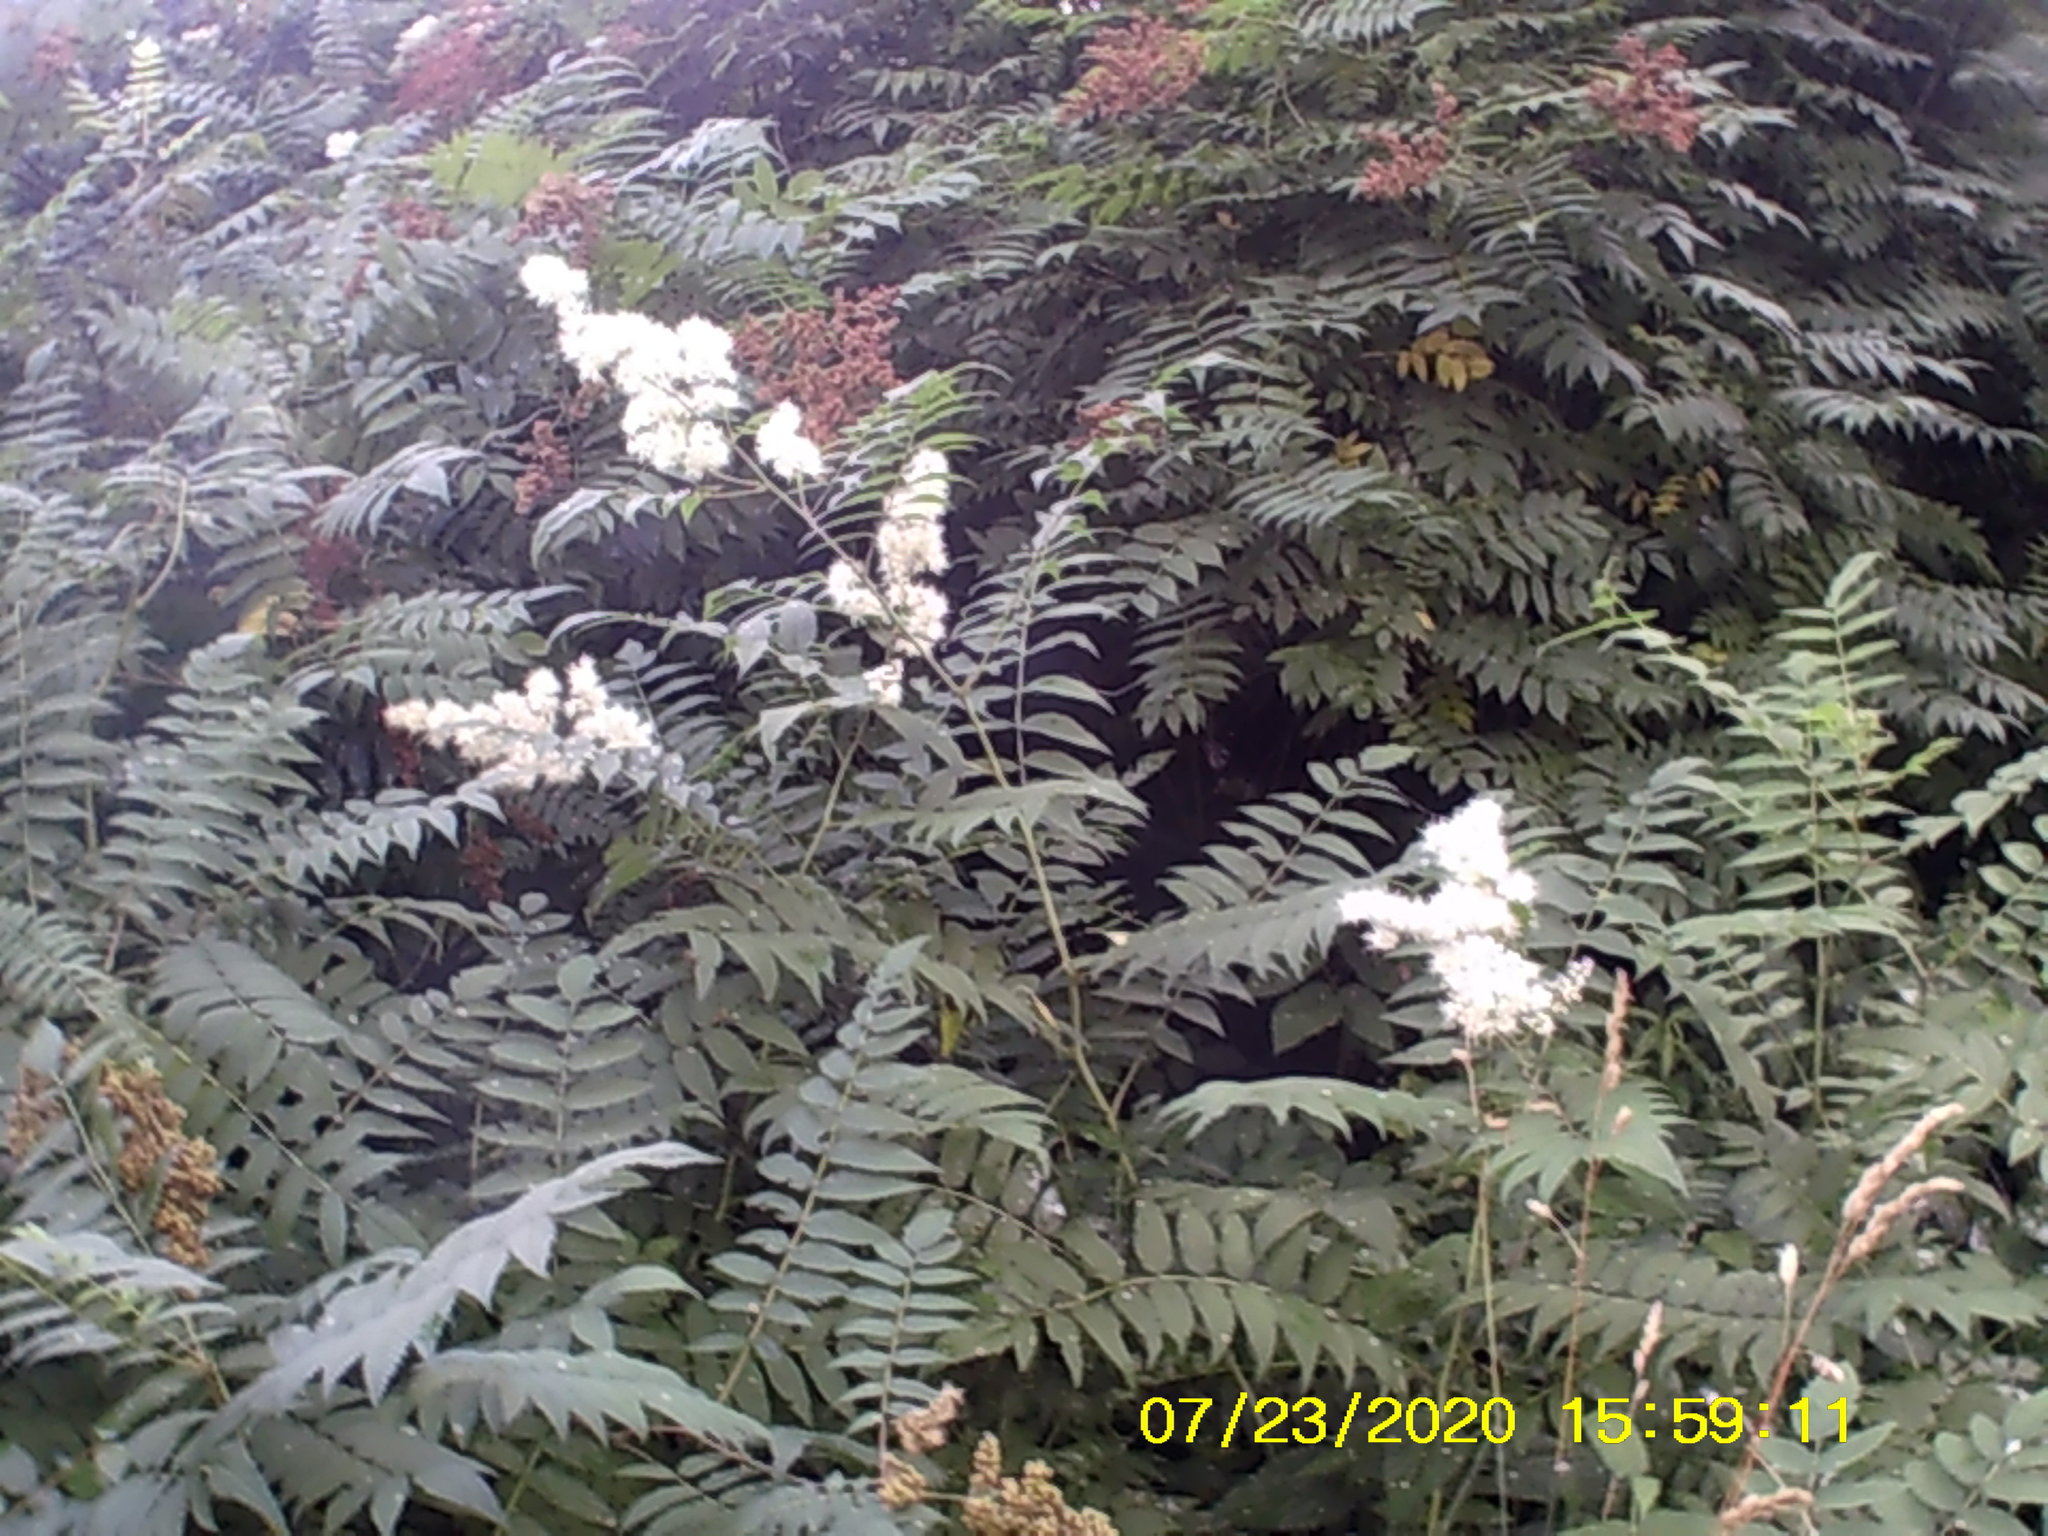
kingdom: Plantae
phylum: Tracheophyta
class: Magnoliopsida
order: Rosales
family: Rosaceae
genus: Sorbaria
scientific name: Sorbaria sorbifolia
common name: False spiraea
